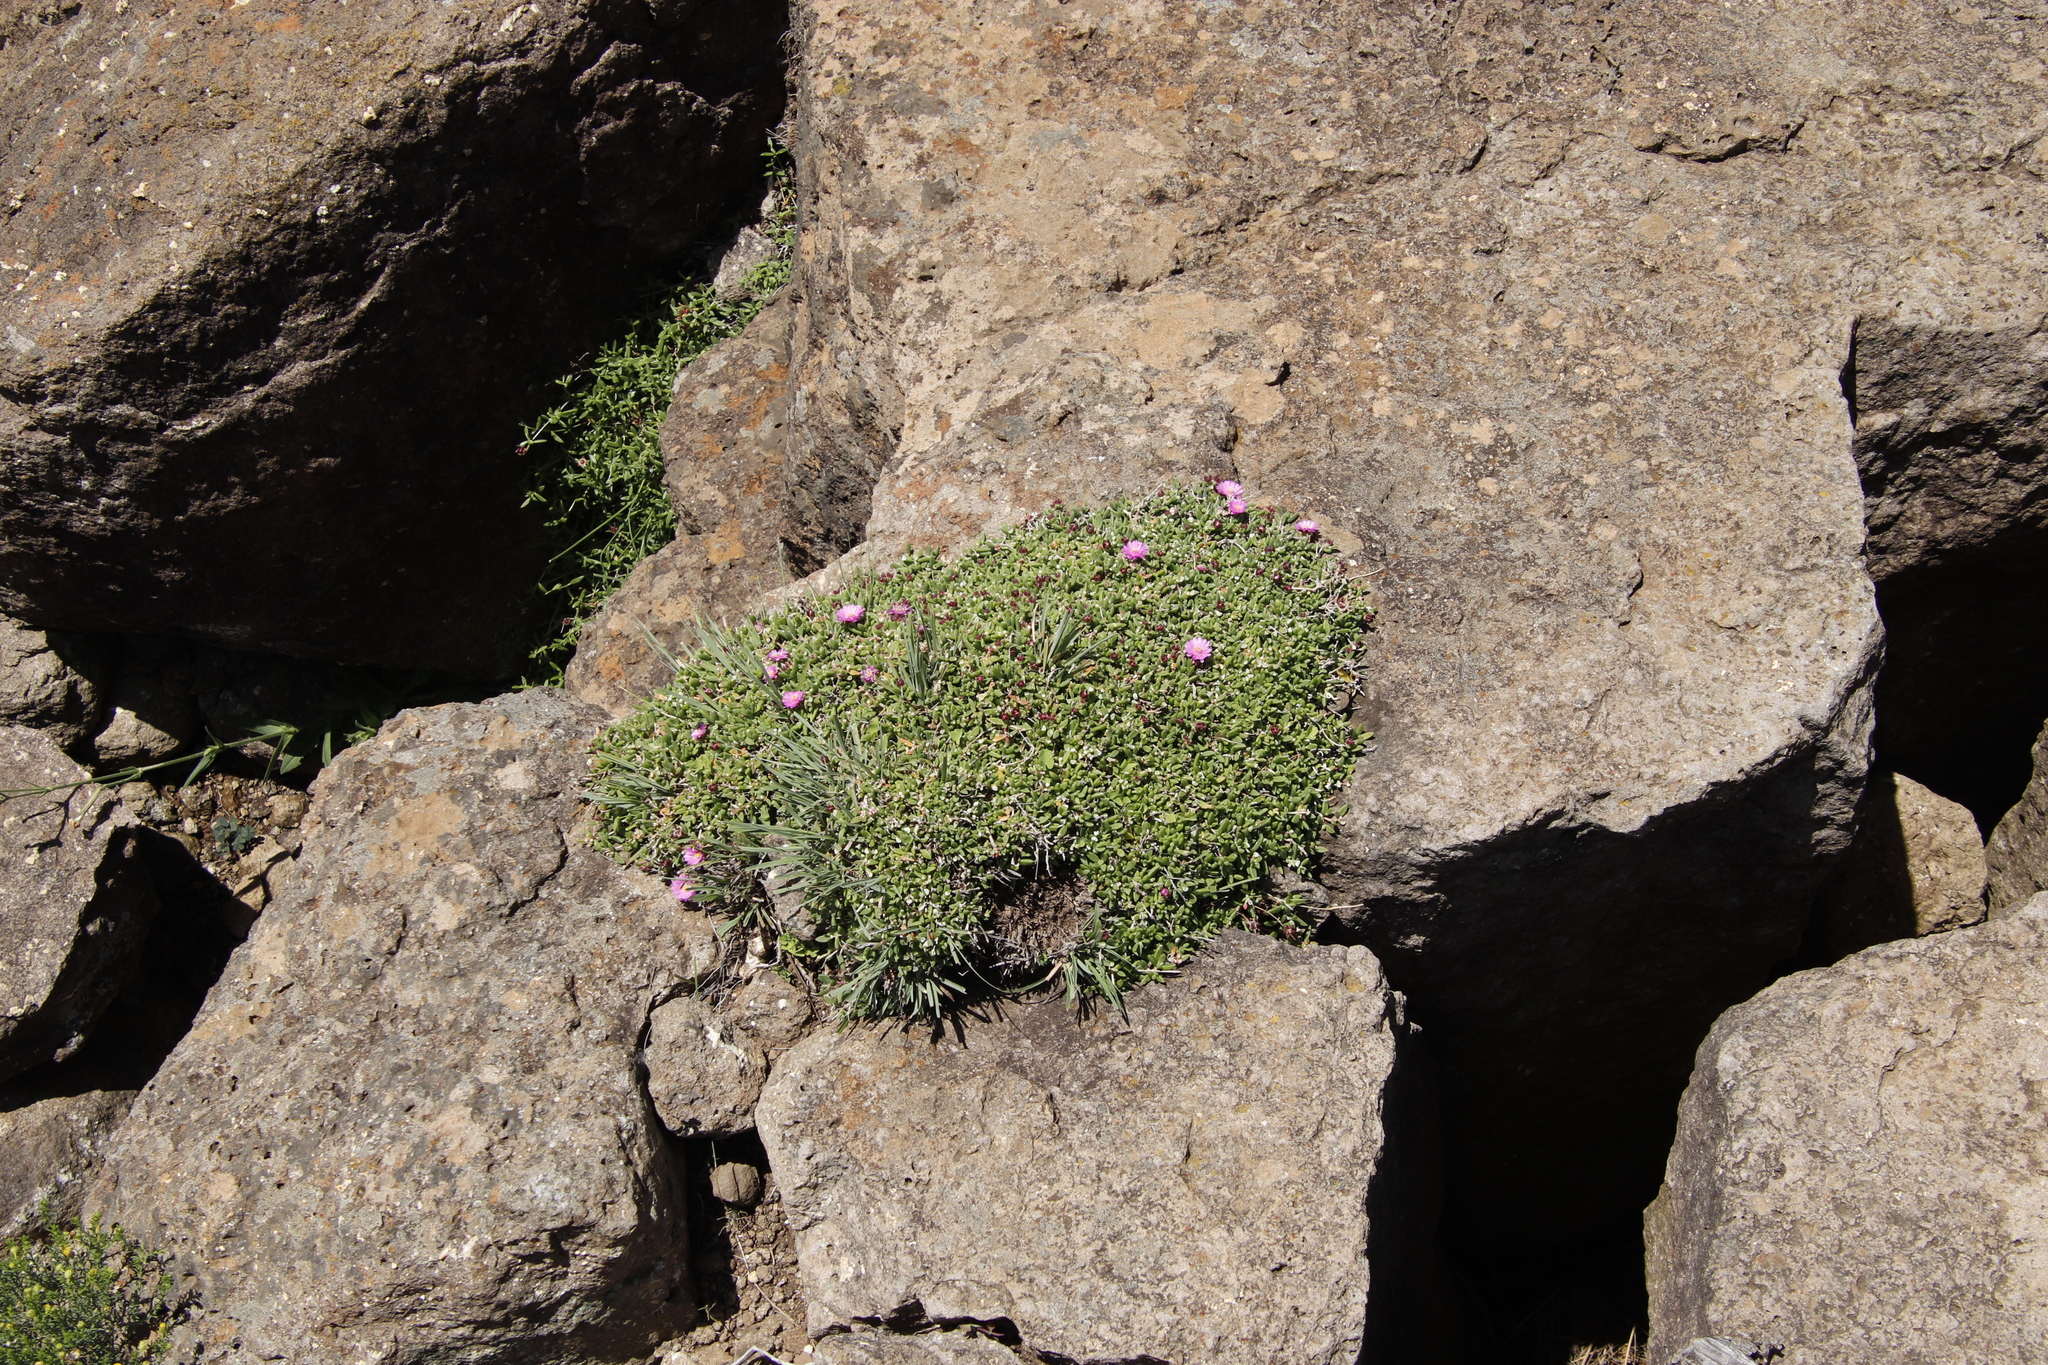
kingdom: Plantae
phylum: Tracheophyta
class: Magnoliopsida
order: Caryophyllales
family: Aizoaceae
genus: Delosperma
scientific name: Delosperma grantiae
